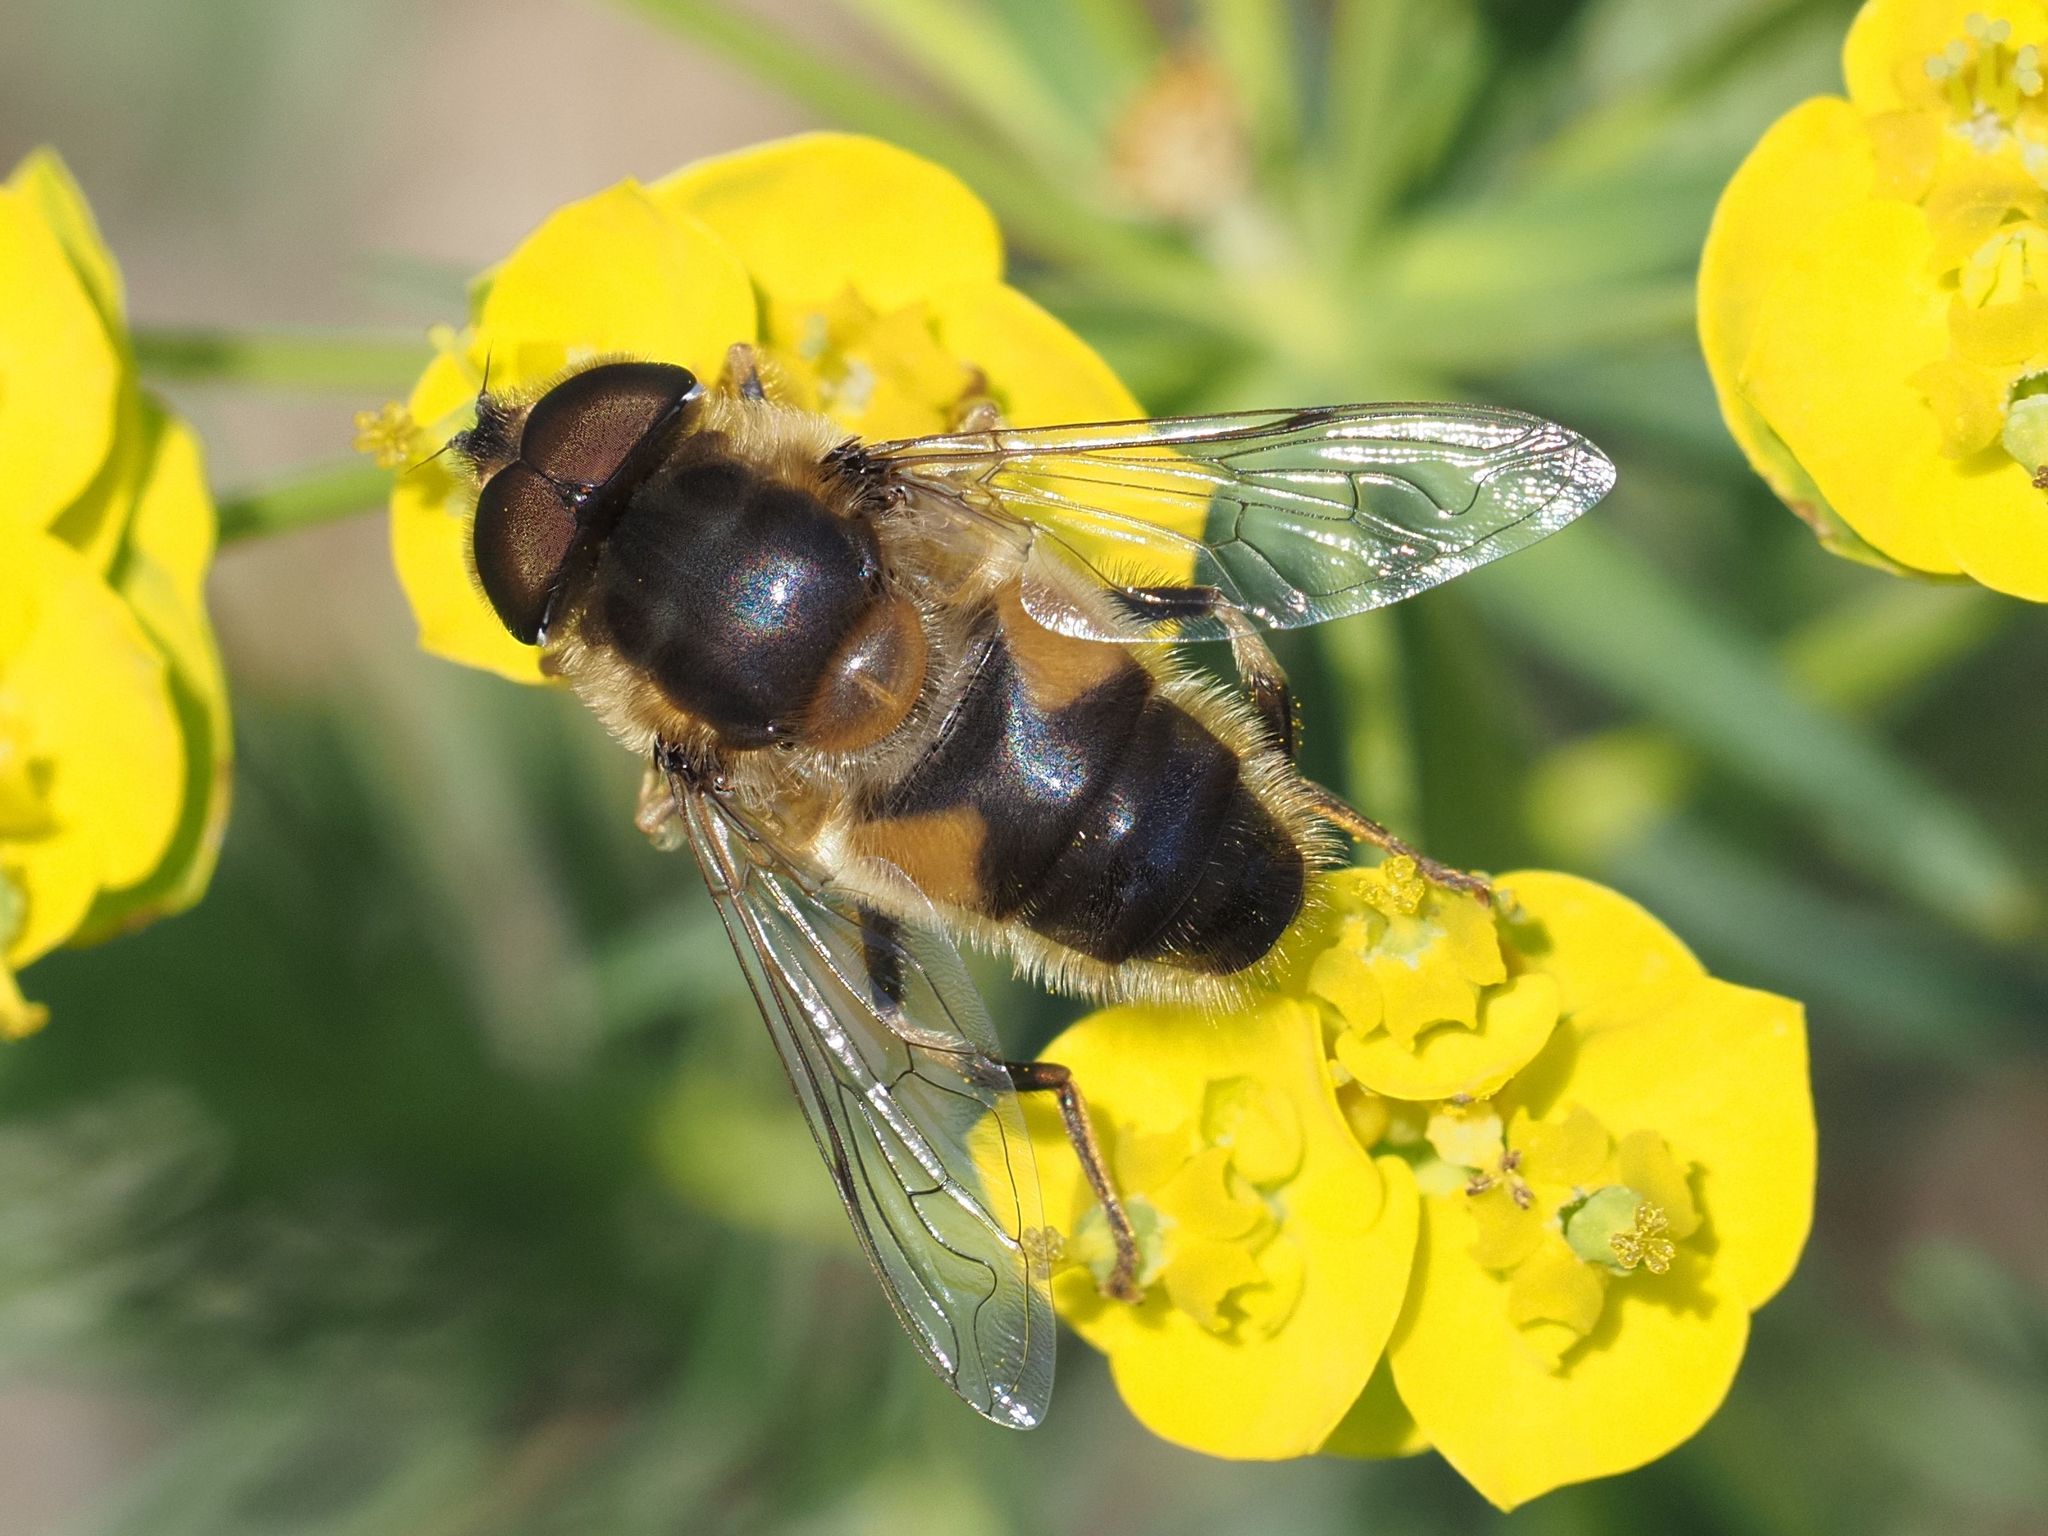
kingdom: Animalia
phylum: Arthropoda
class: Insecta
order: Diptera
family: Syrphidae
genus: Eristalis
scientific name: Eristalis pertinax
